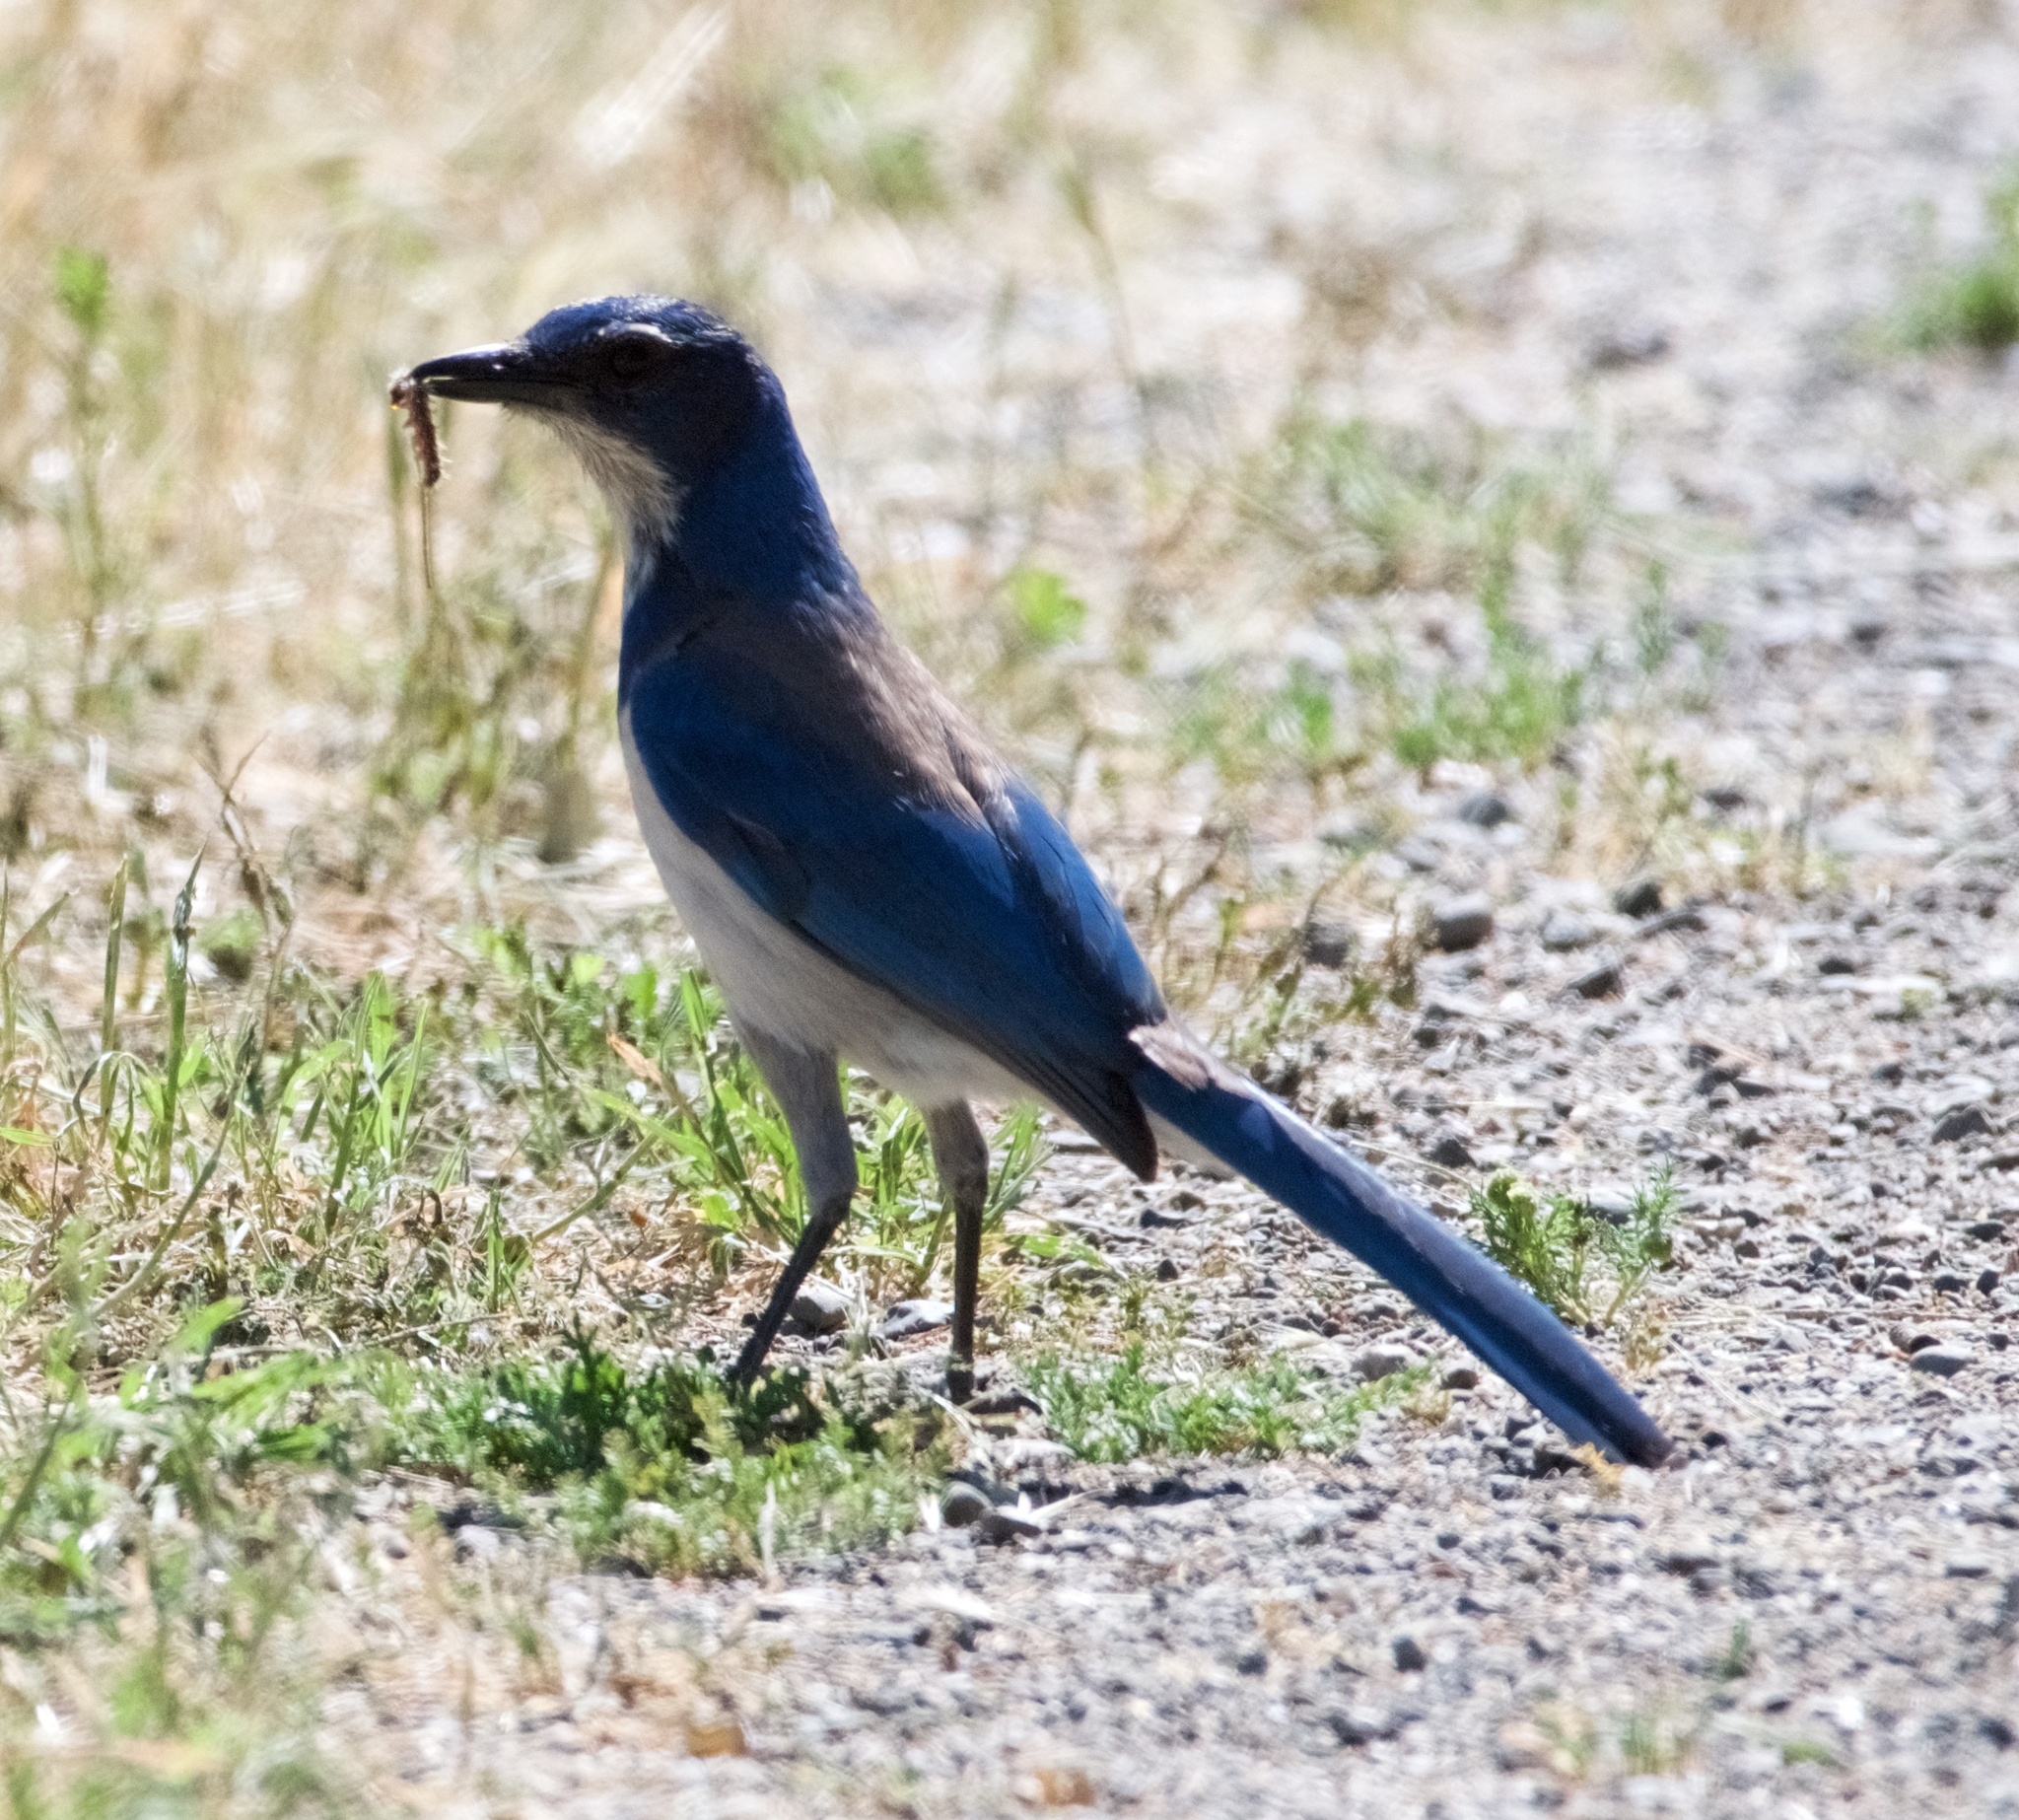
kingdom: Animalia
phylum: Chordata
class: Aves
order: Passeriformes
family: Corvidae
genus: Aphelocoma
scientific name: Aphelocoma californica
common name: California scrub-jay
